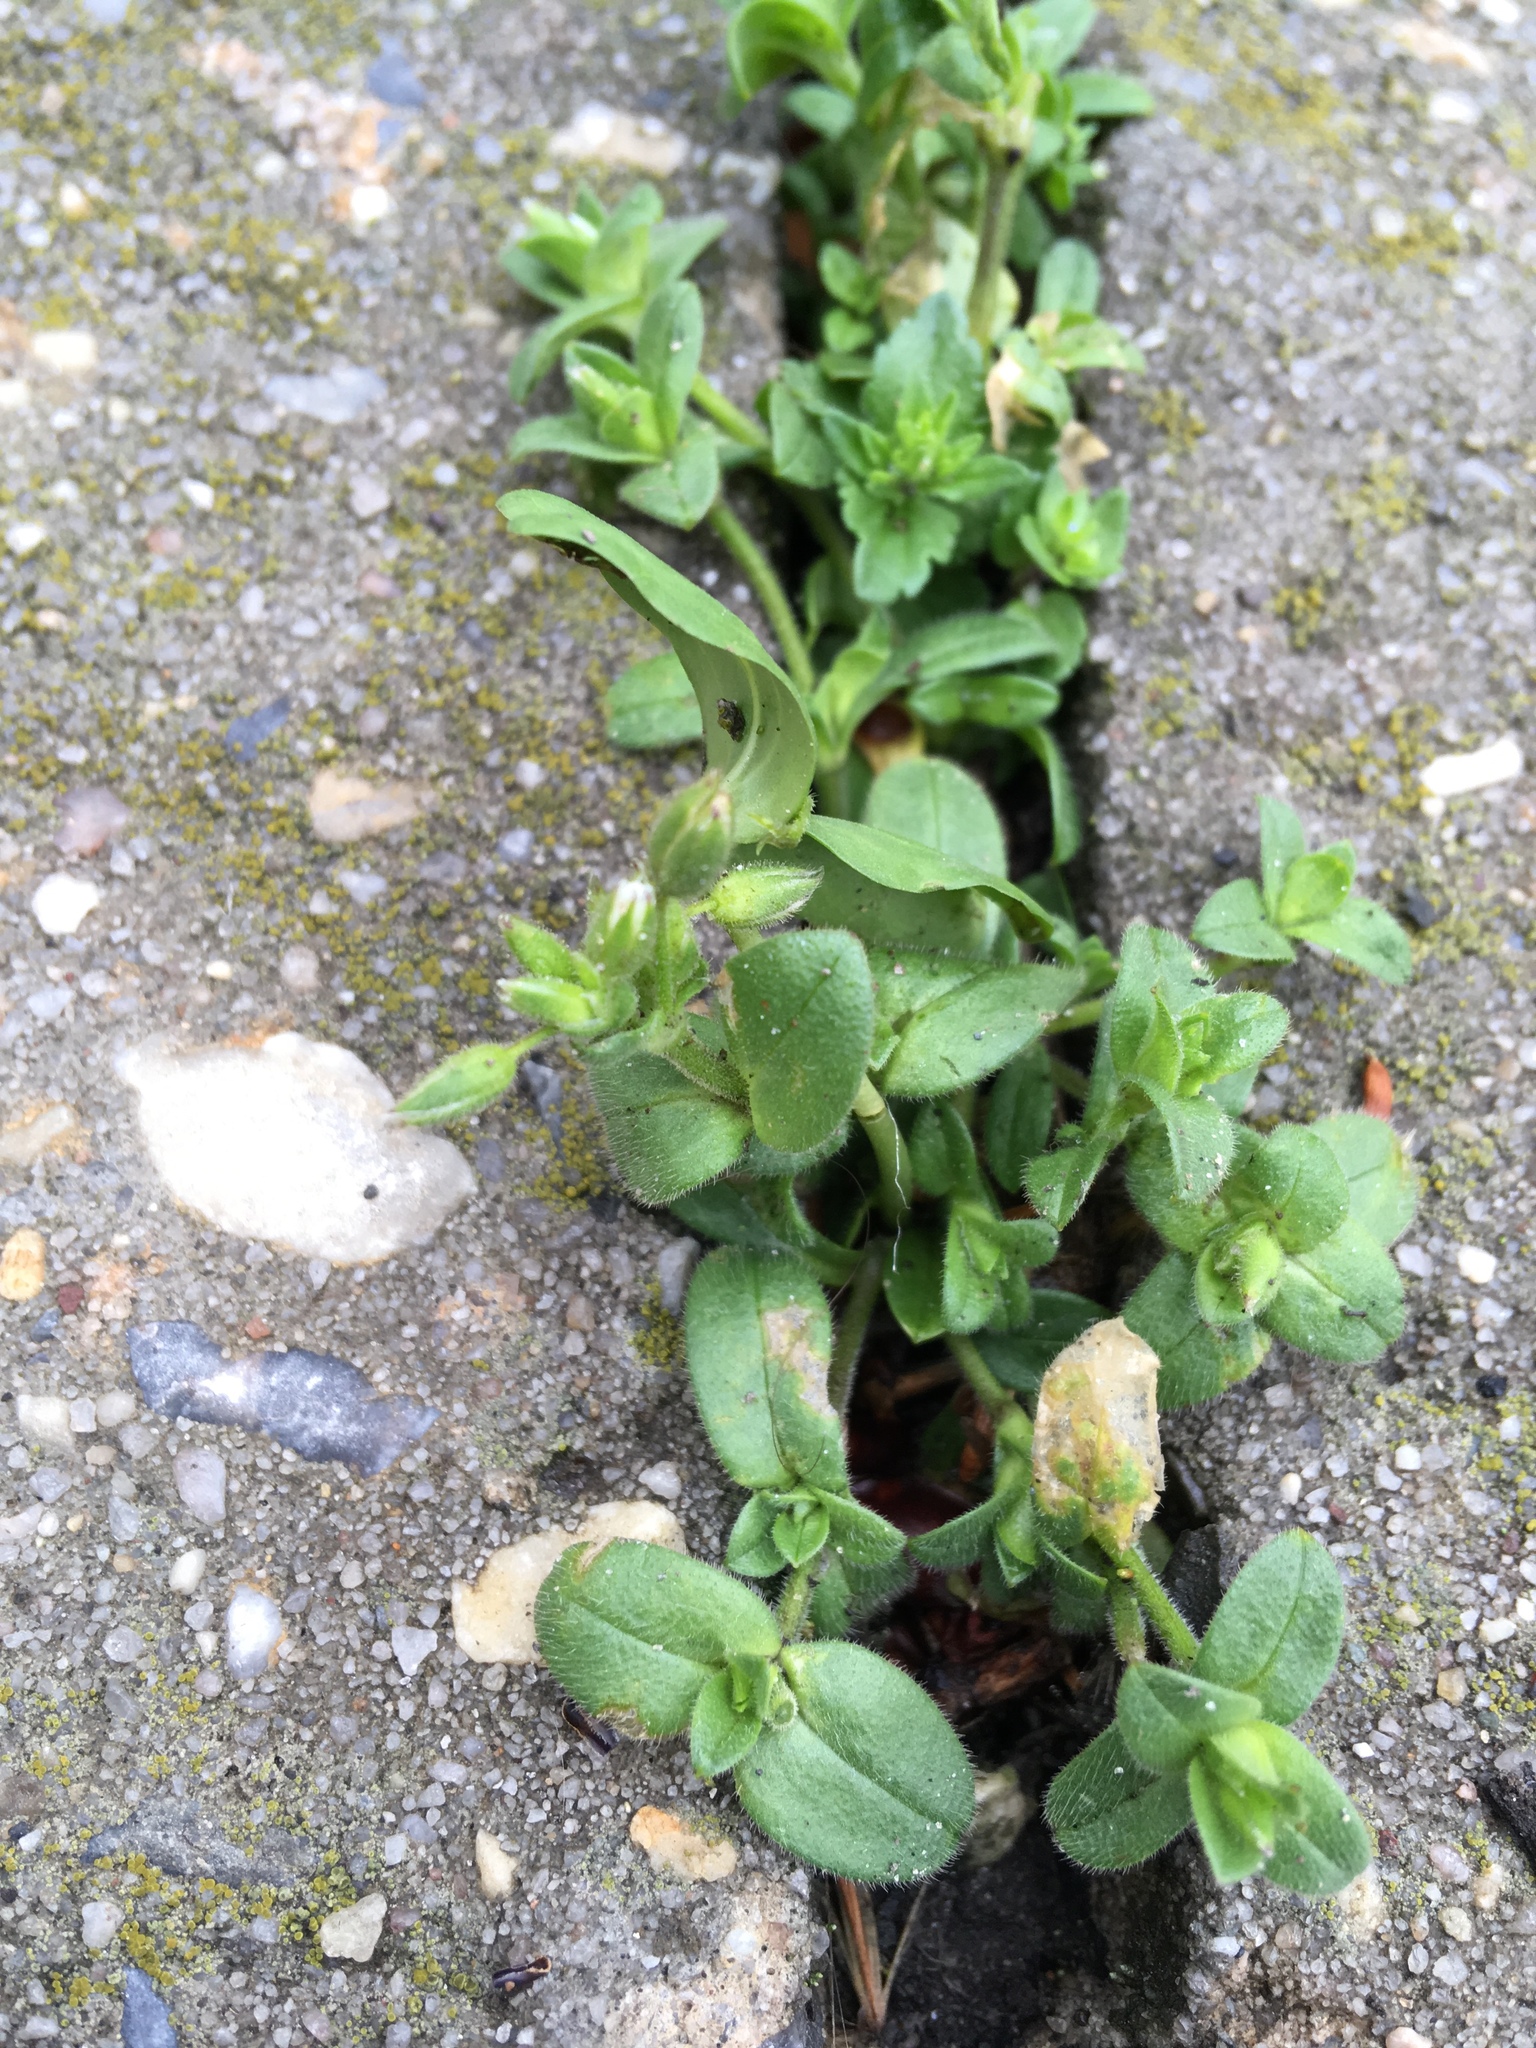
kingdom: Plantae
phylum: Tracheophyta
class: Magnoliopsida
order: Caryophyllales
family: Caryophyllaceae
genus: Cerastium
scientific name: Cerastium fontanum
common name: Common mouse-ear
